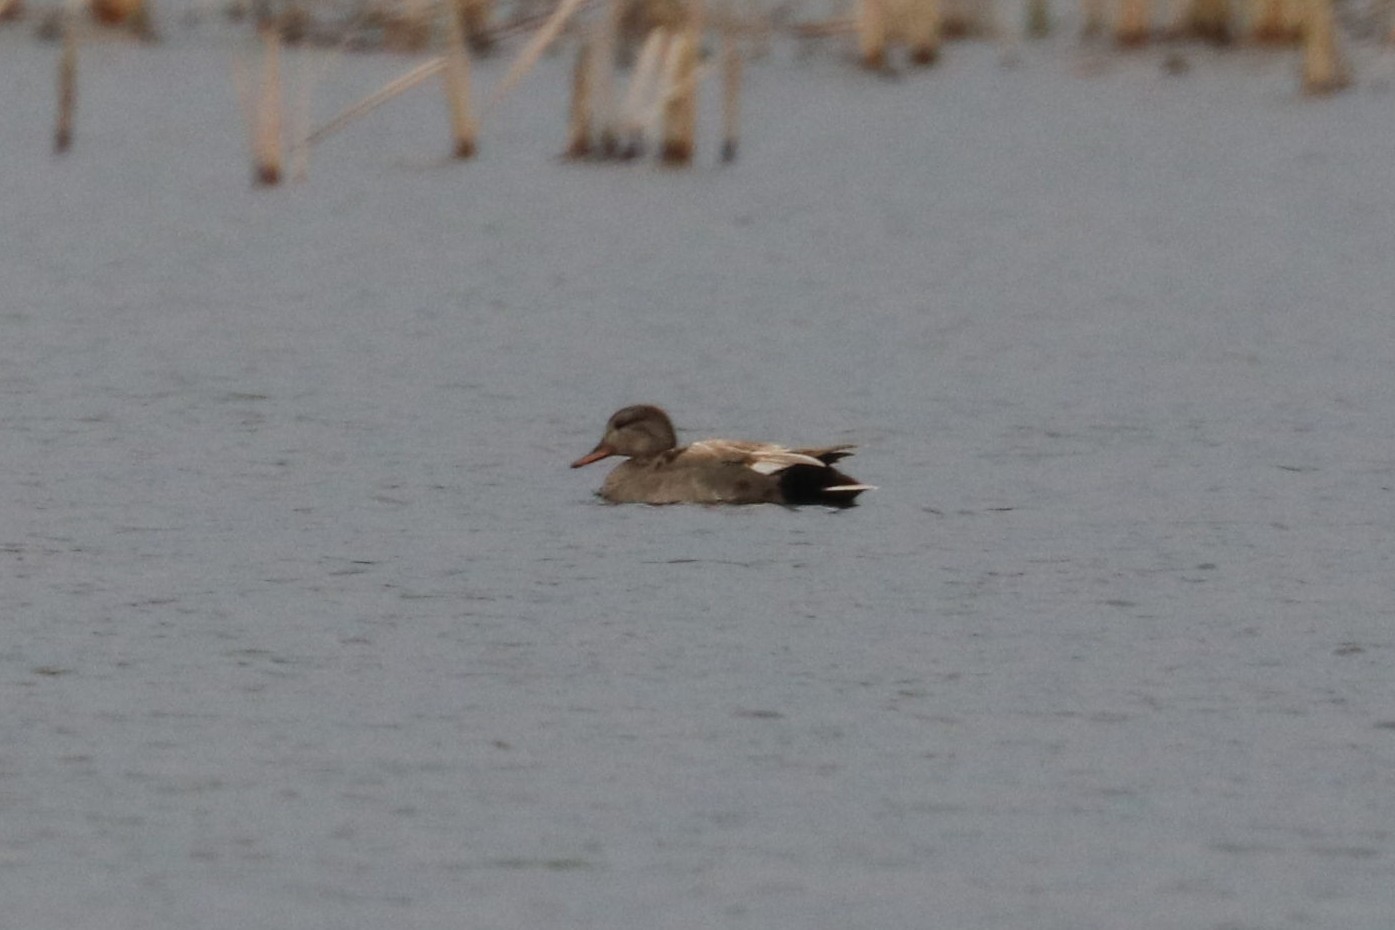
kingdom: Animalia
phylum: Chordata
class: Aves
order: Anseriformes
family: Anatidae
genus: Mareca
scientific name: Mareca strepera
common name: Gadwall
